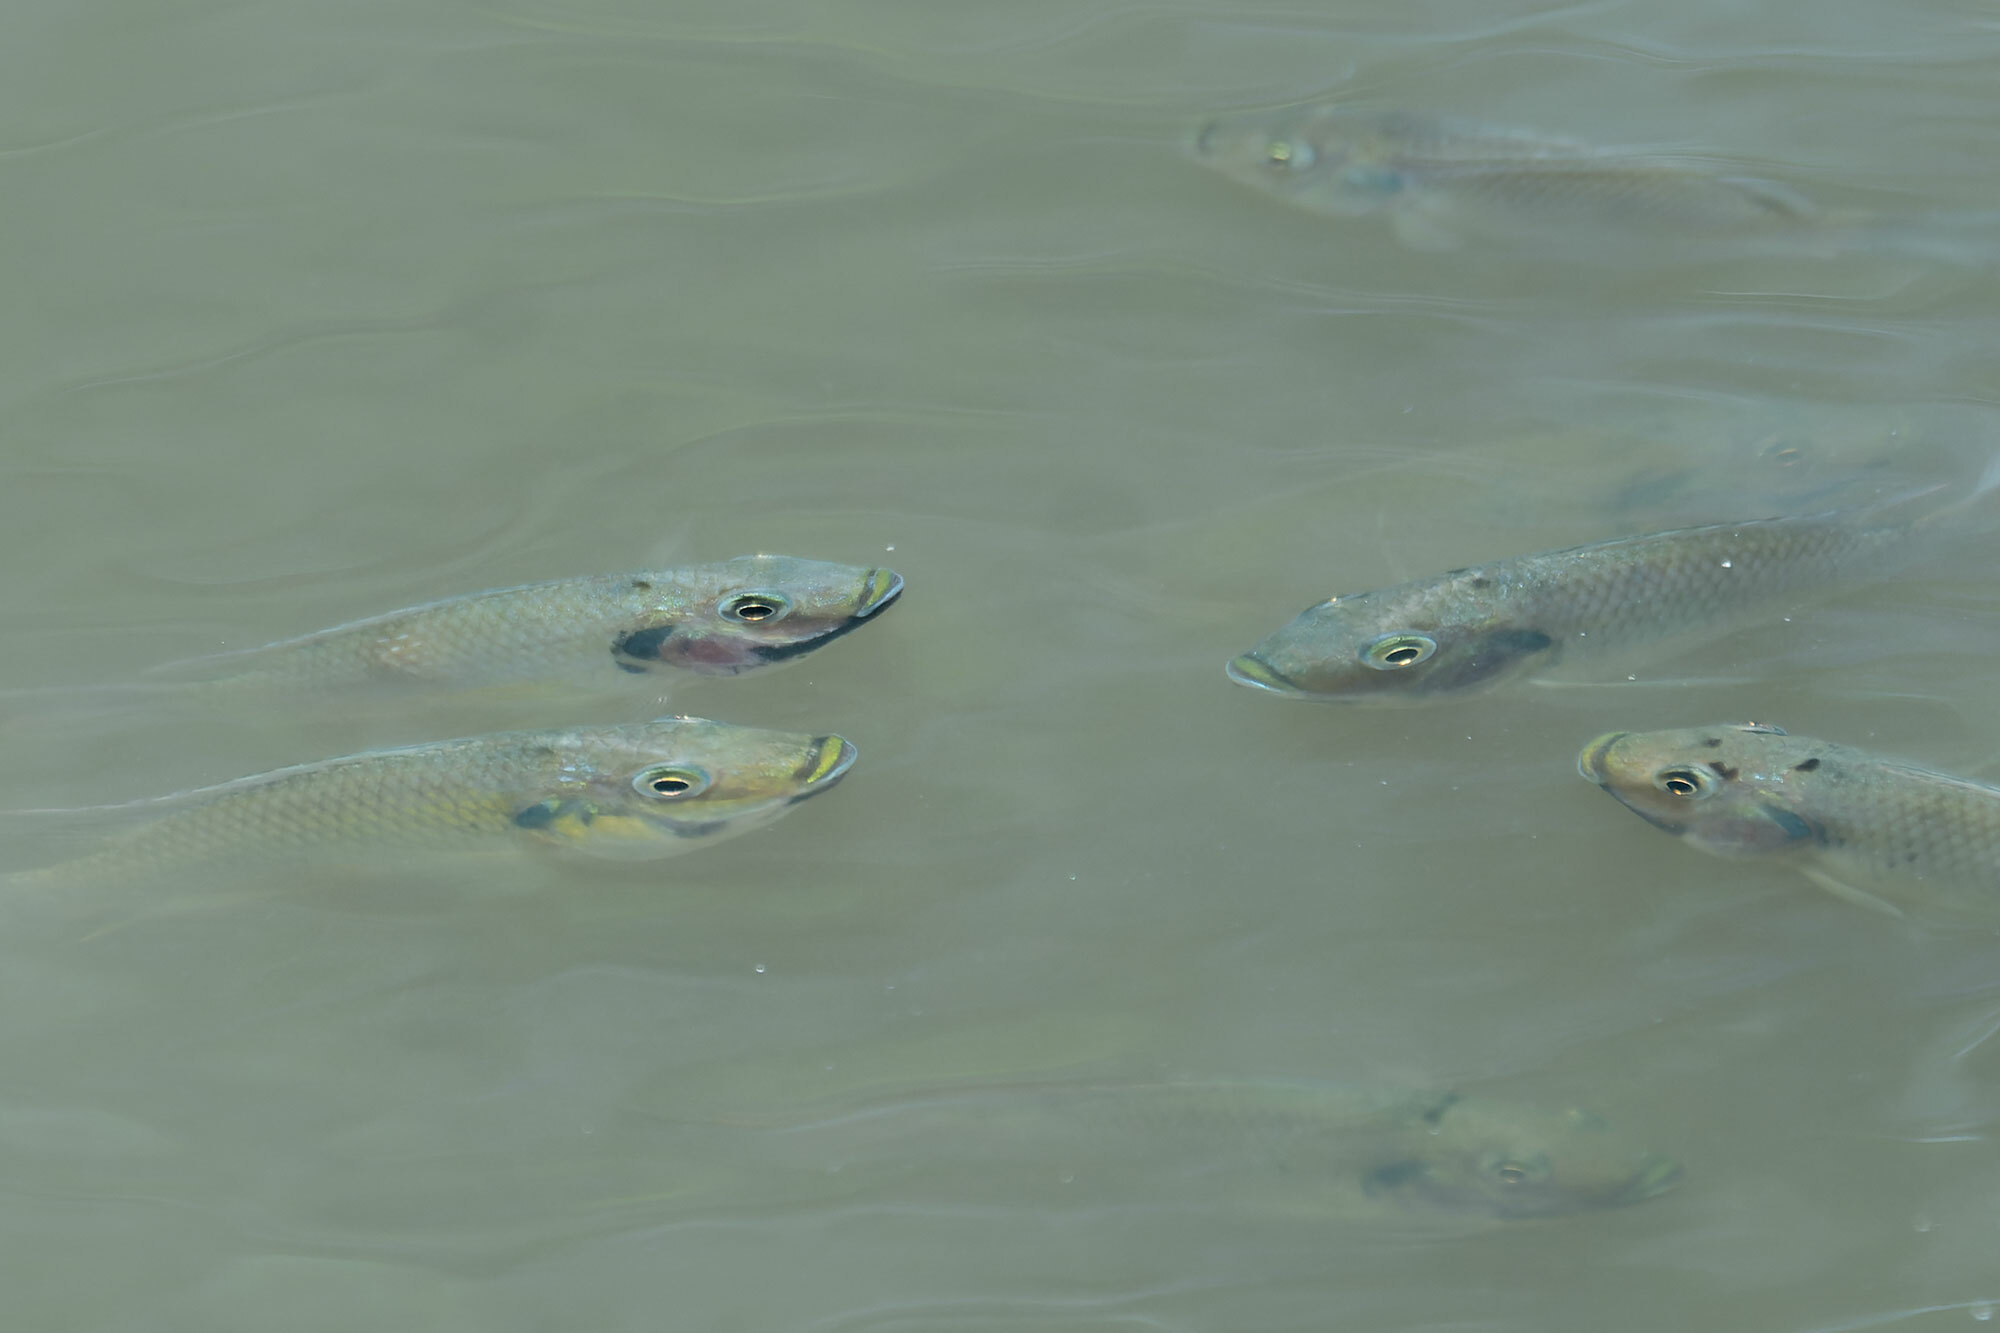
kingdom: Animalia
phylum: Chordata
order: Perciformes
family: Cichlidae
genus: Sarotherodon
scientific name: Sarotherodon melanotheron
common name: Blackchin tilapia
